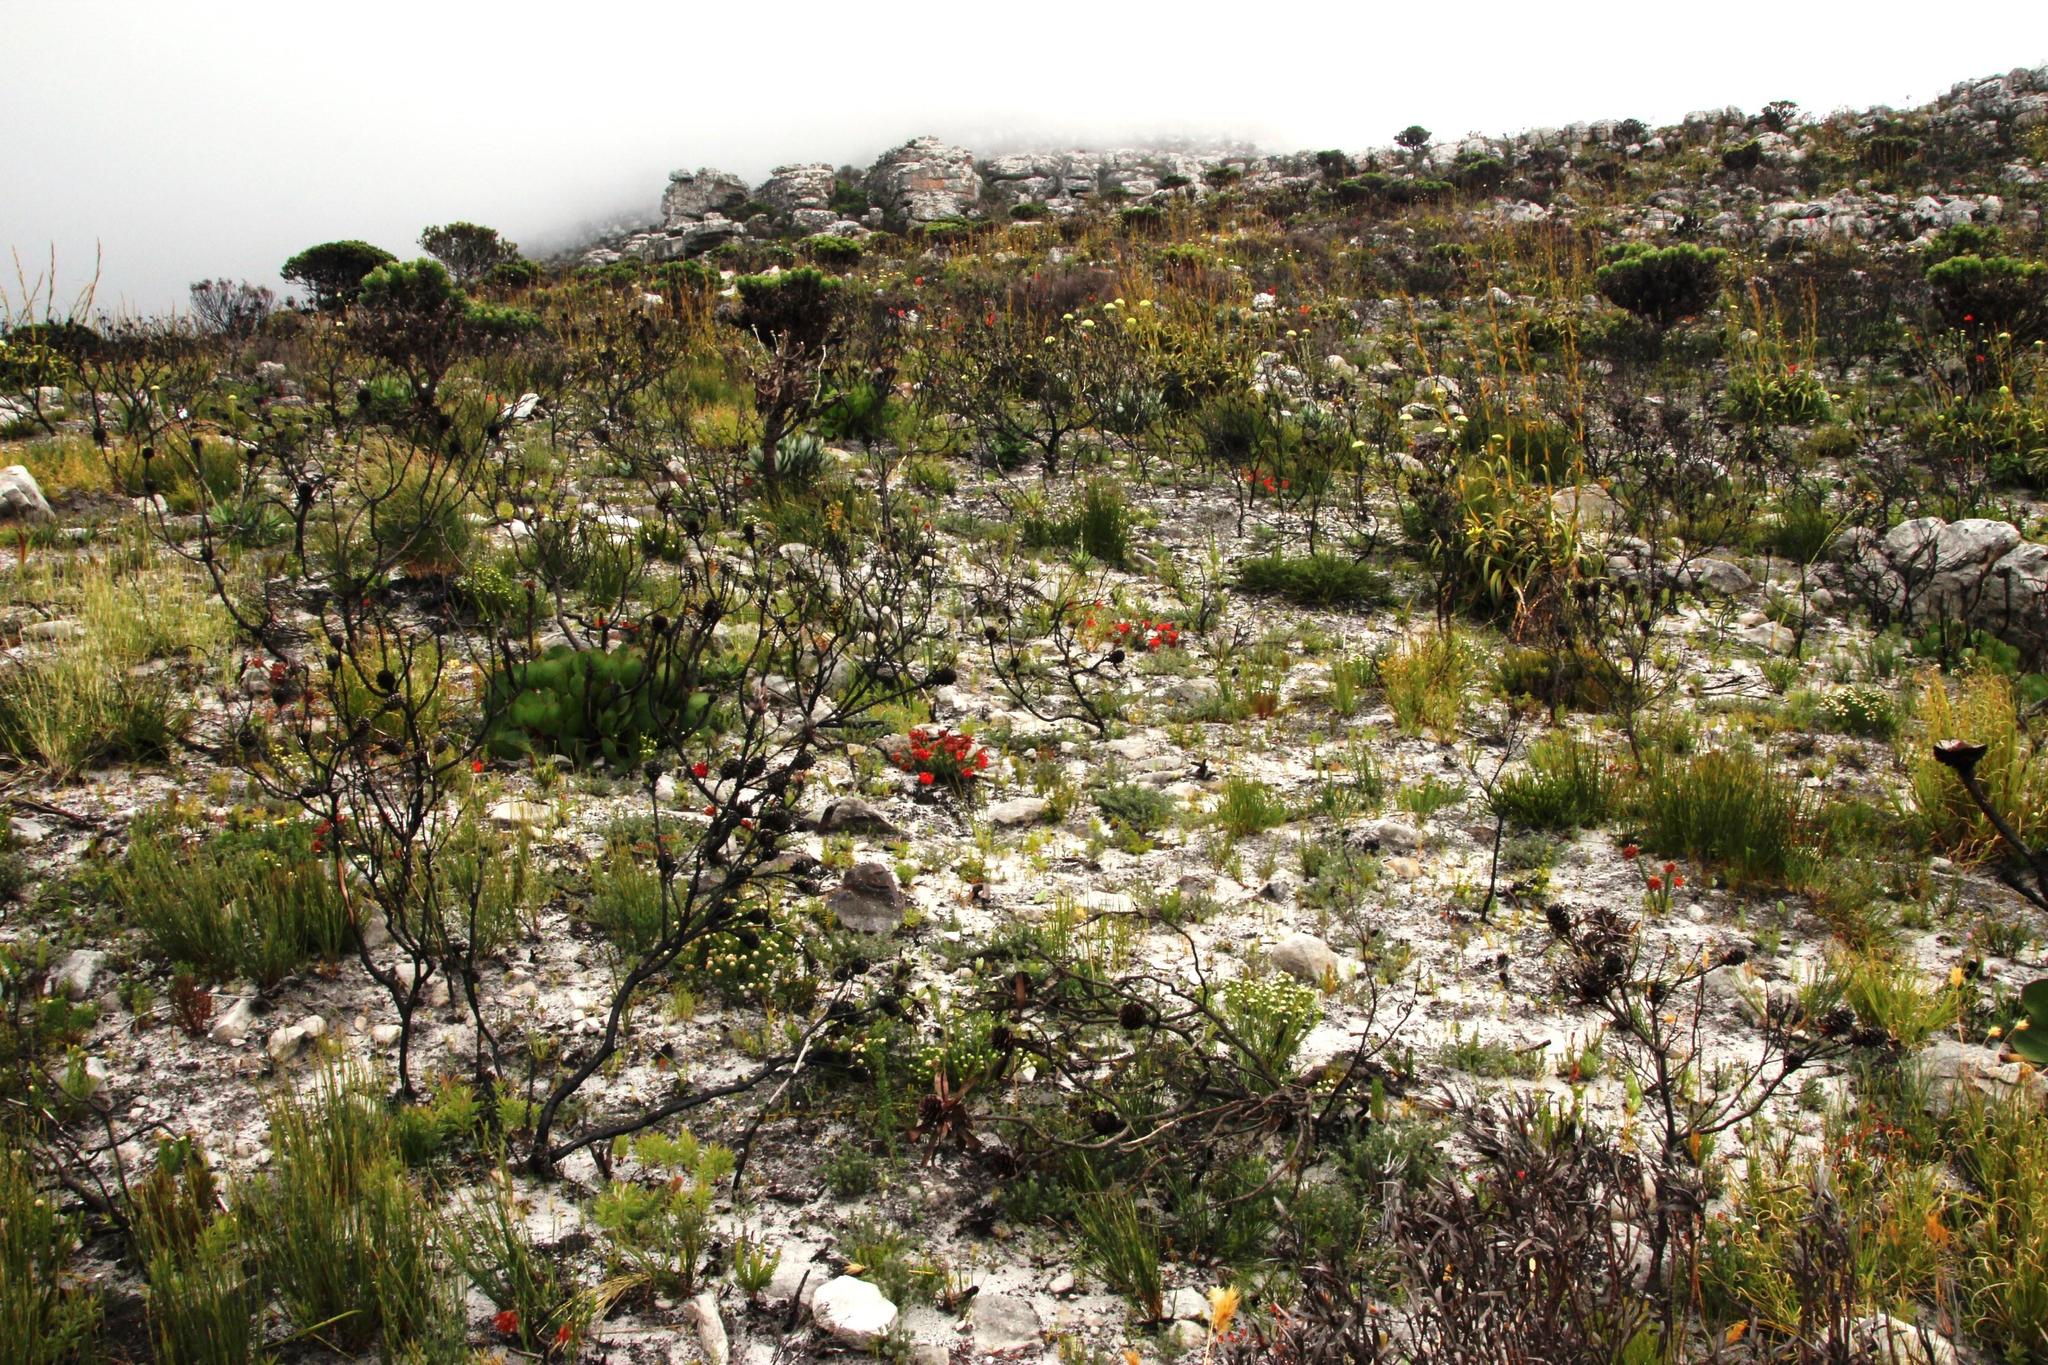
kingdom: Plantae
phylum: Tracheophyta
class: Magnoliopsida
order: Ericales
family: Ericaceae
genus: Erica
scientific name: Erica cerinthoides
